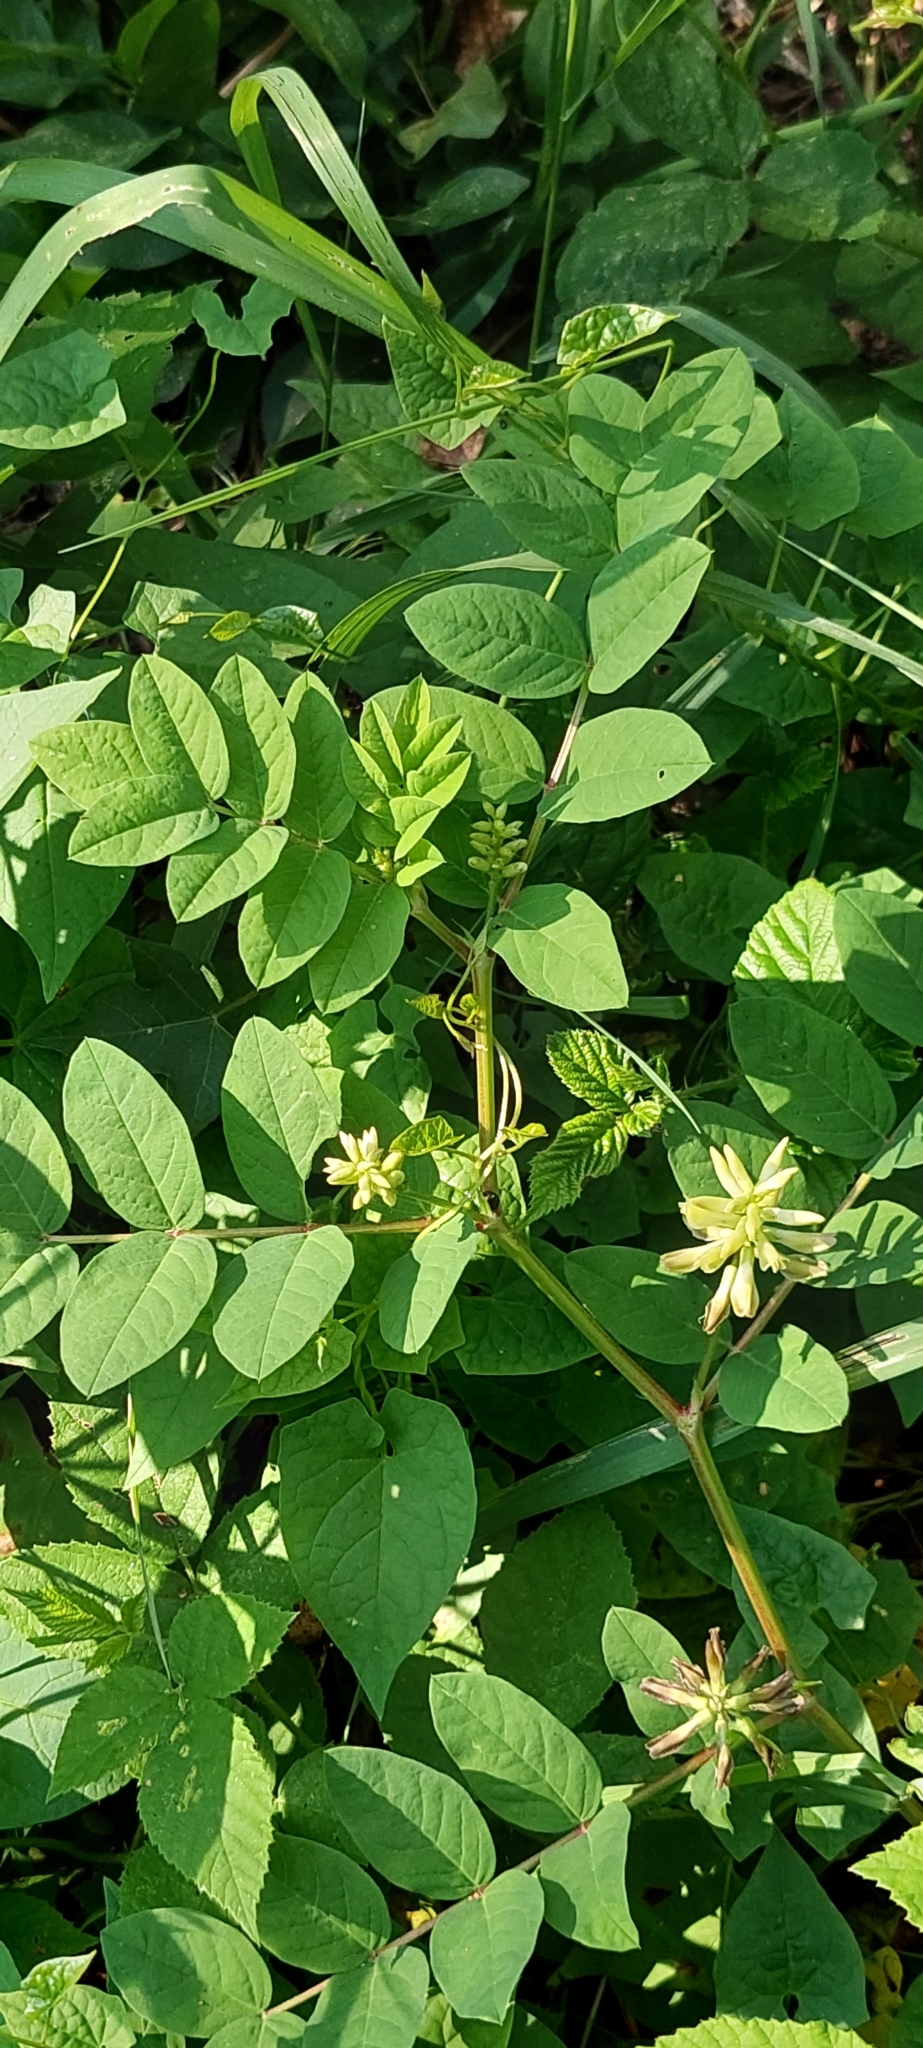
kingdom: Plantae
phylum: Tracheophyta
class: Magnoliopsida
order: Fabales
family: Fabaceae
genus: Astragalus
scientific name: Astragalus glycyphyllos
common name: Wild liquorice
